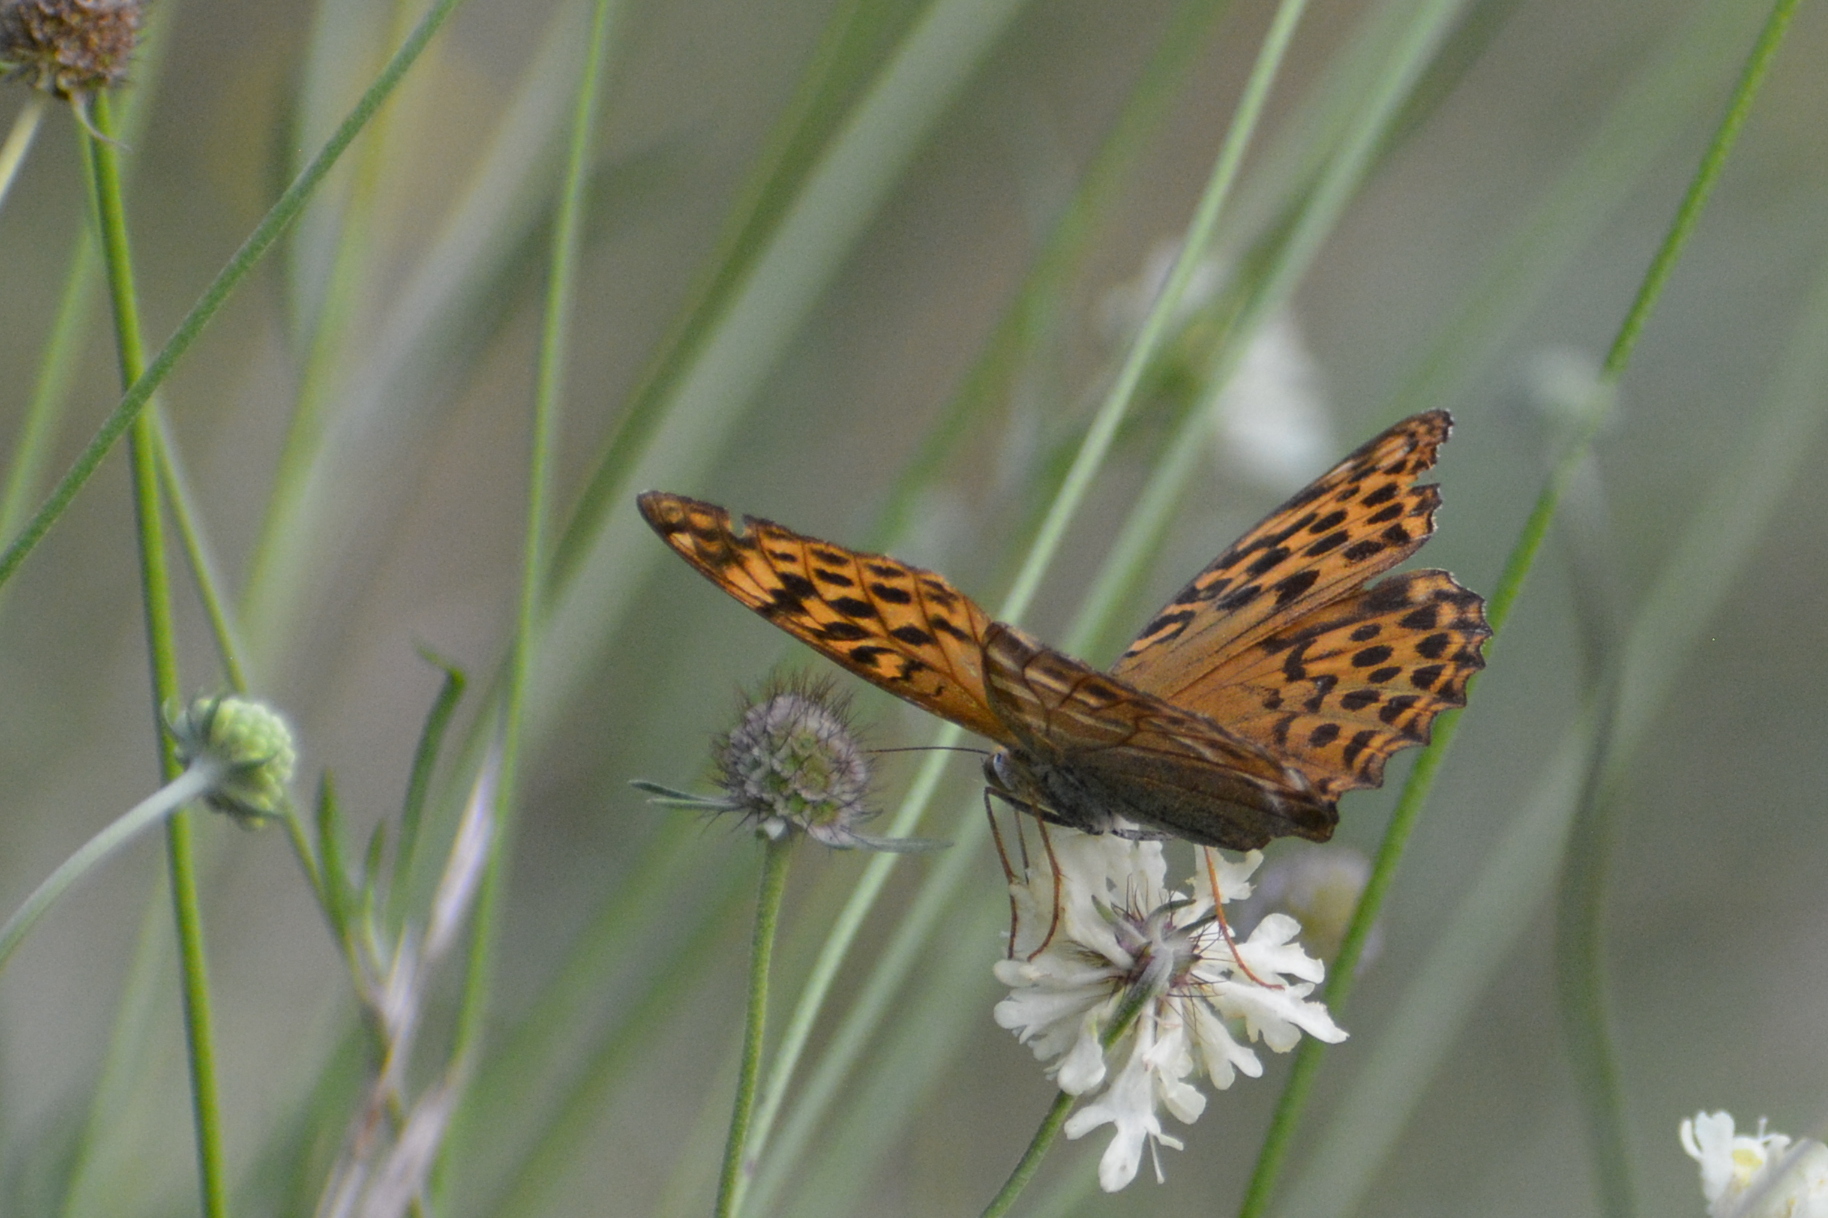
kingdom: Animalia
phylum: Arthropoda
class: Insecta
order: Lepidoptera
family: Nymphalidae
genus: Argynnis
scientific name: Argynnis paphia
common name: Silver-washed fritillary
